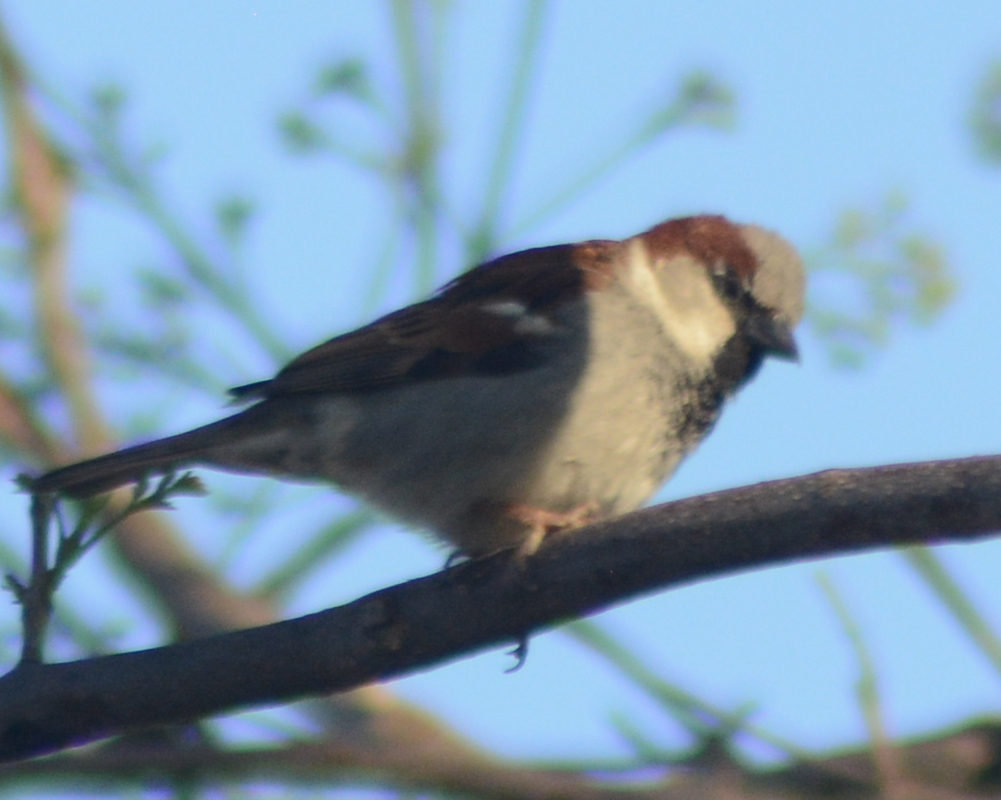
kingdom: Animalia
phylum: Chordata
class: Aves
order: Passeriformes
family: Passeridae
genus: Passer
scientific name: Passer domesticus
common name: House sparrow
